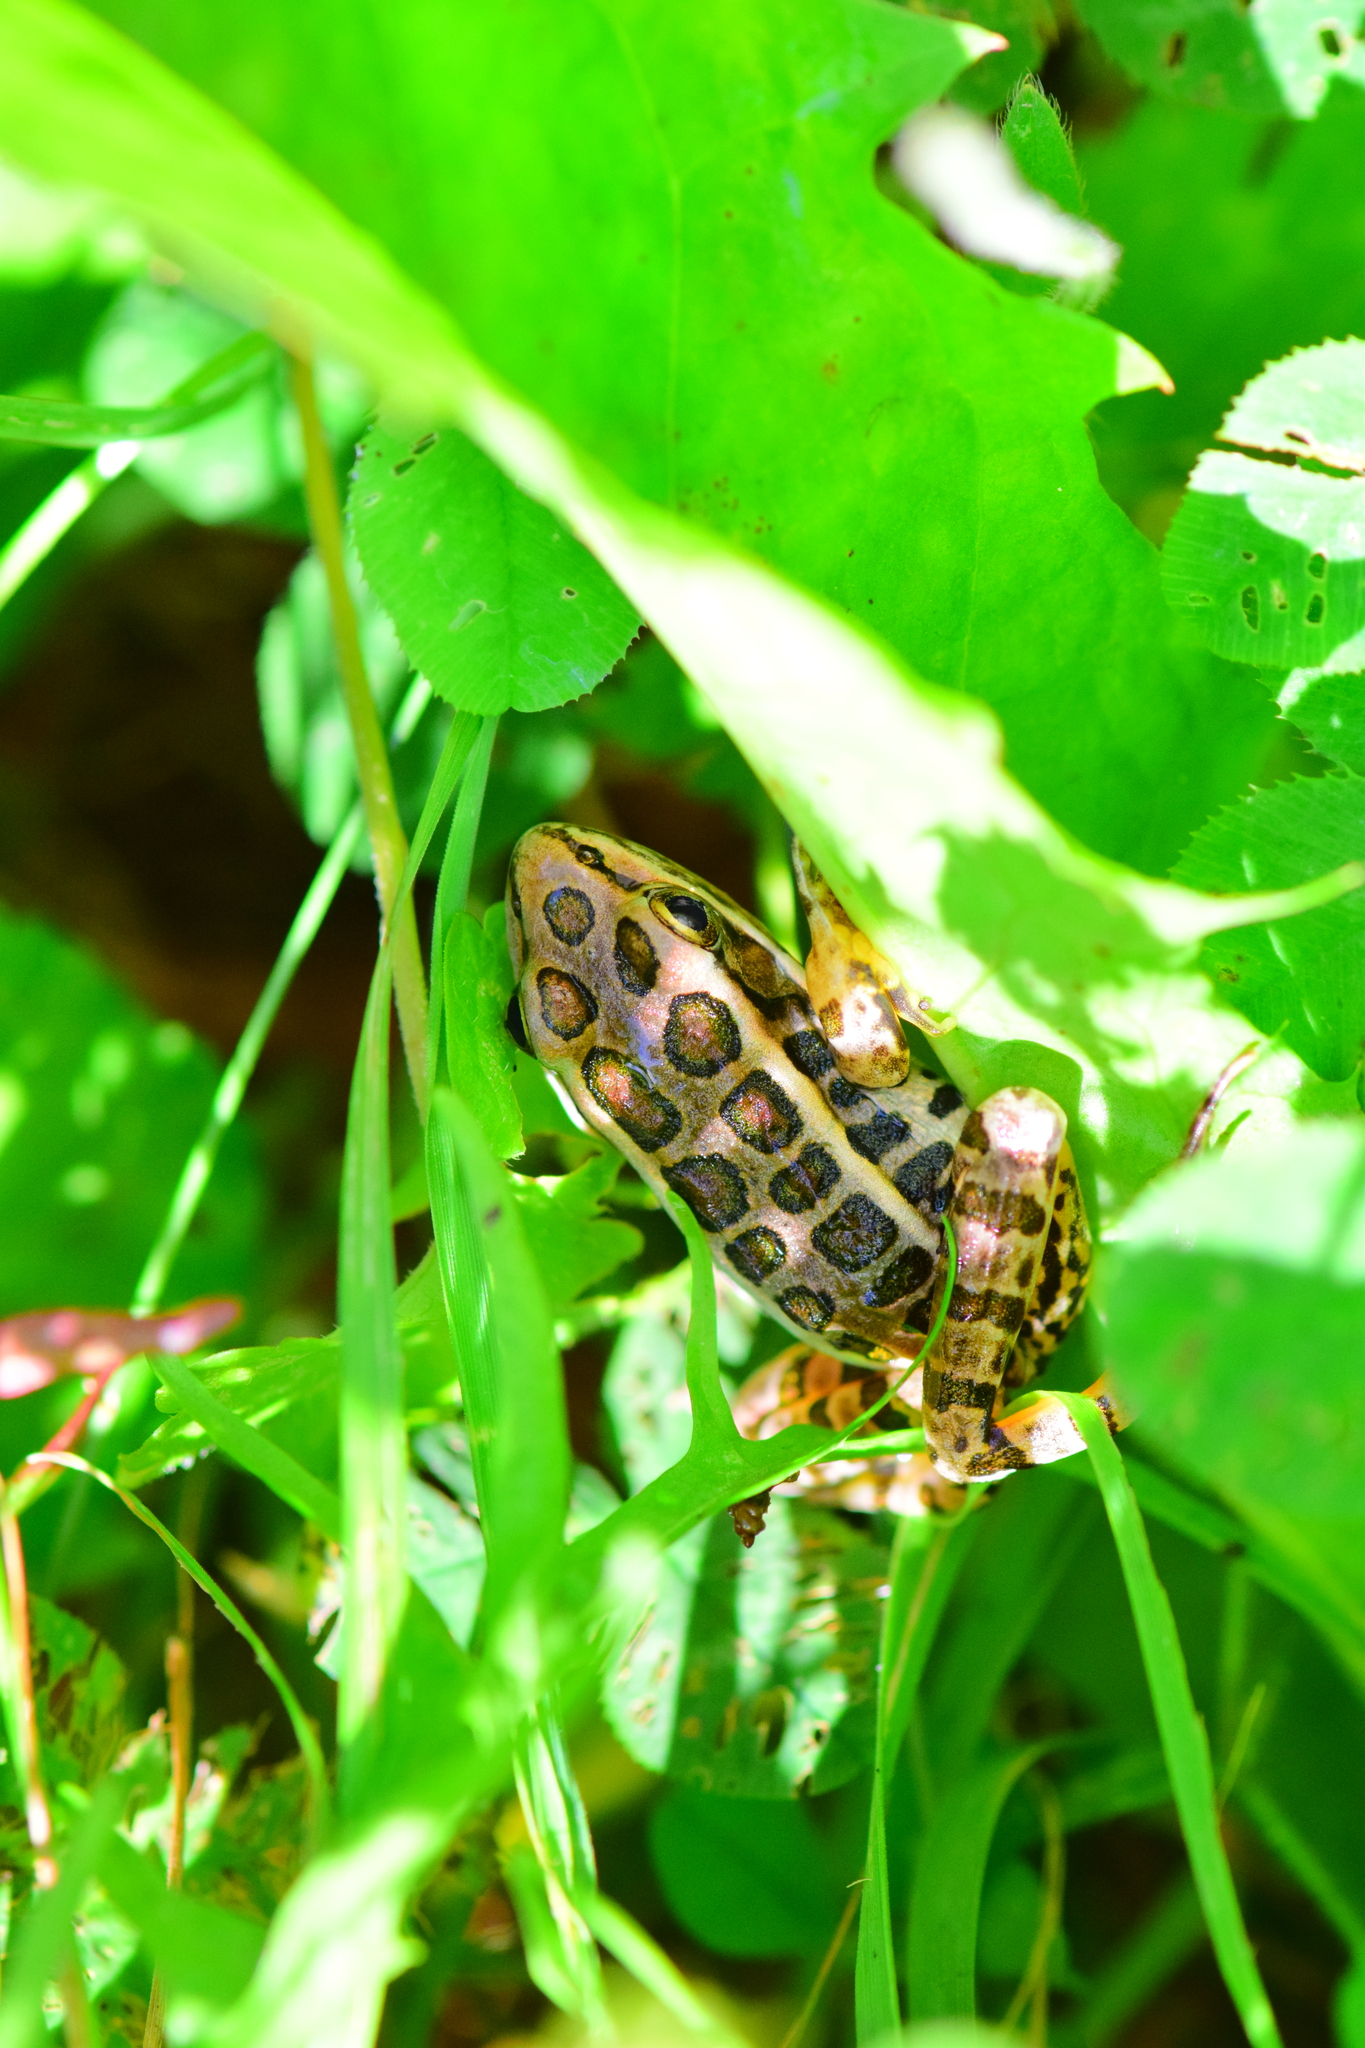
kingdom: Animalia
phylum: Chordata
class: Amphibia
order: Anura
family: Ranidae
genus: Lithobates
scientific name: Lithobates palustris
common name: Pickerel frog
